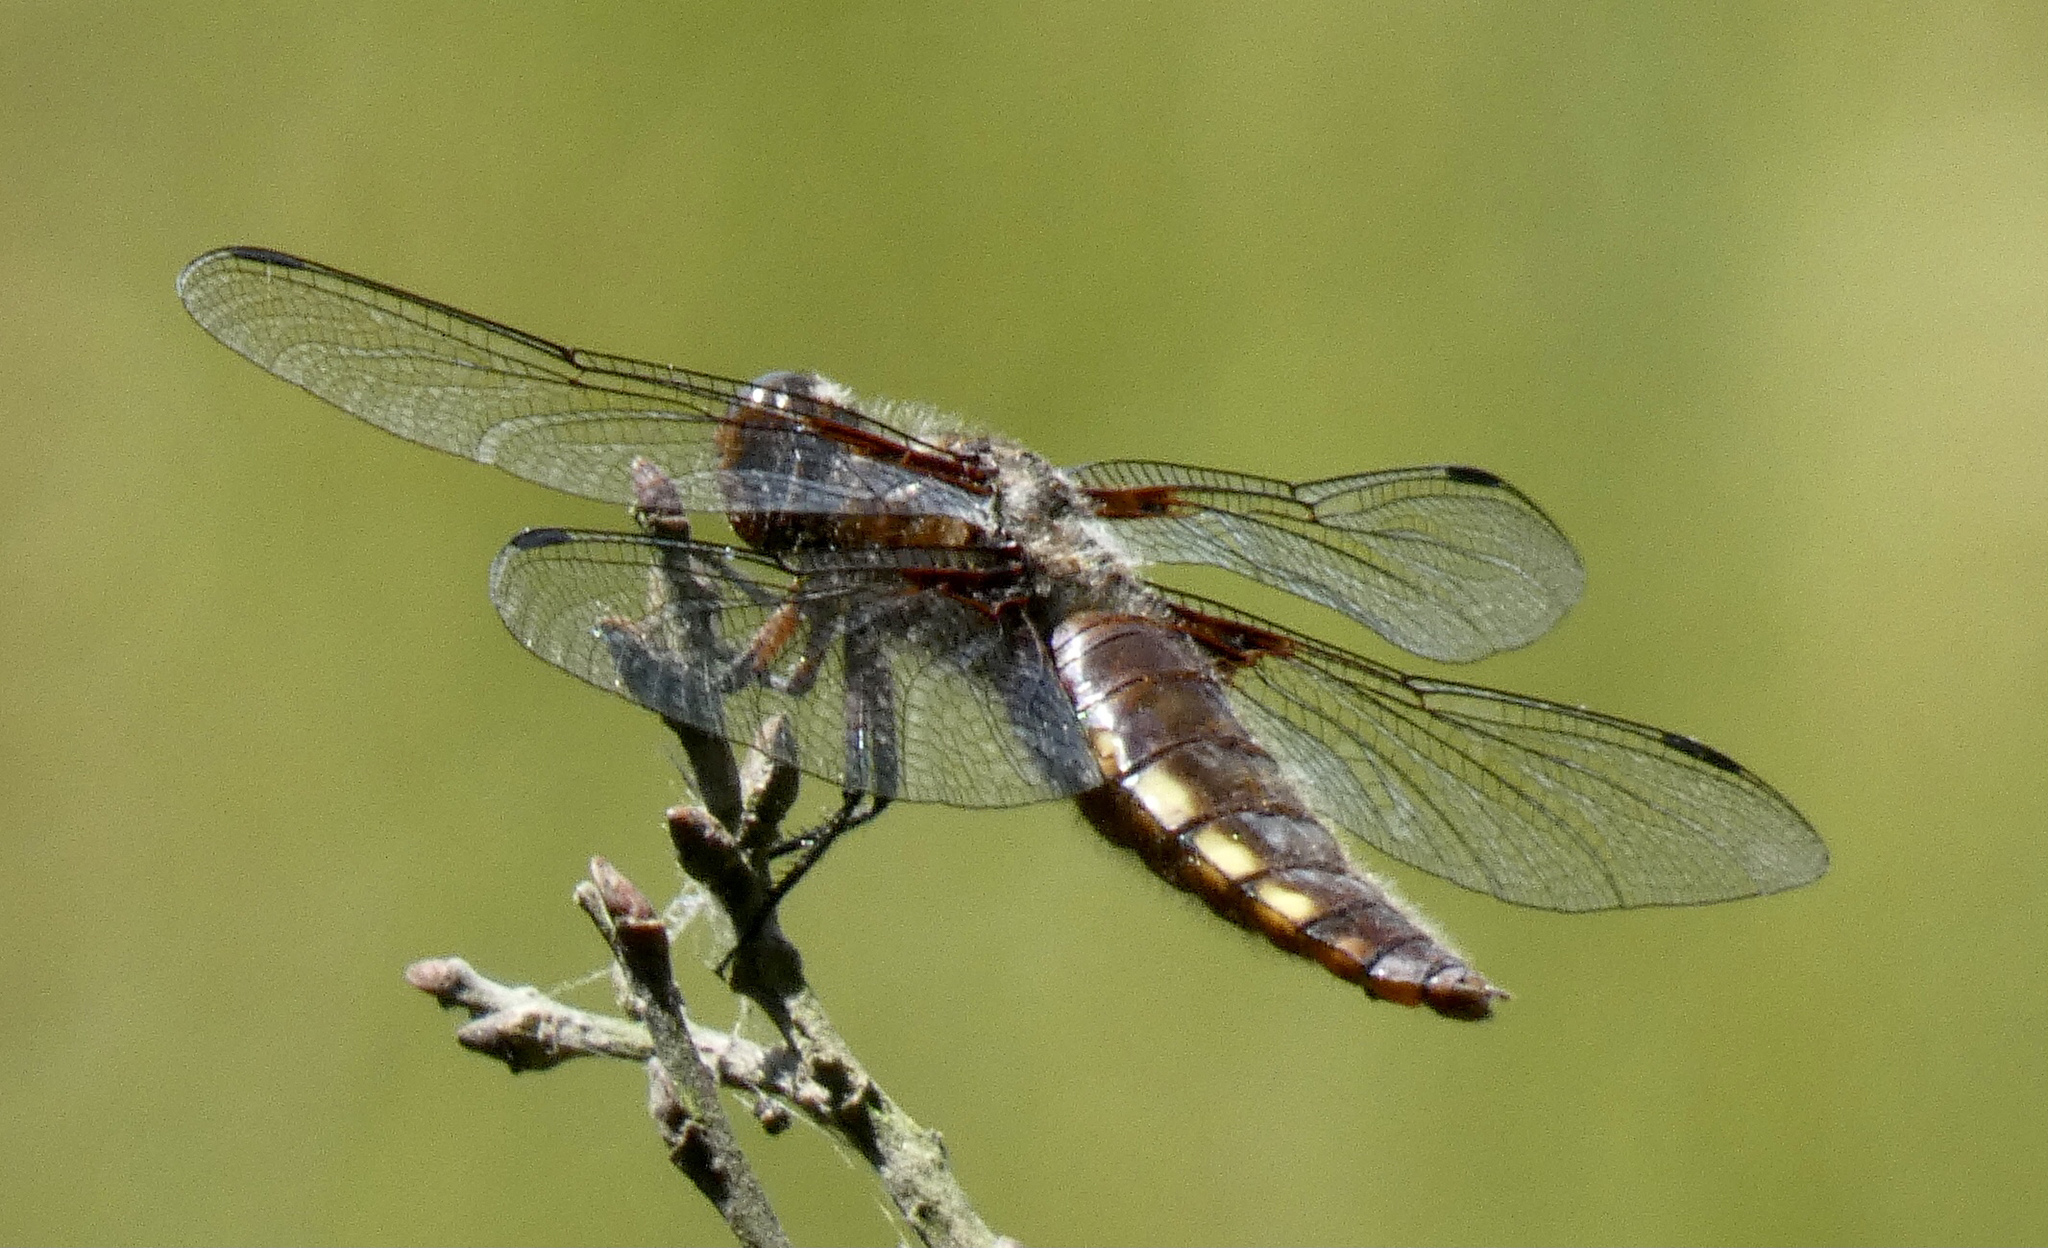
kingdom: Animalia
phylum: Arthropoda
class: Insecta
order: Odonata
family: Libellulidae
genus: Libellula
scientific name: Libellula depressa
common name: Broad-bodied chaser
